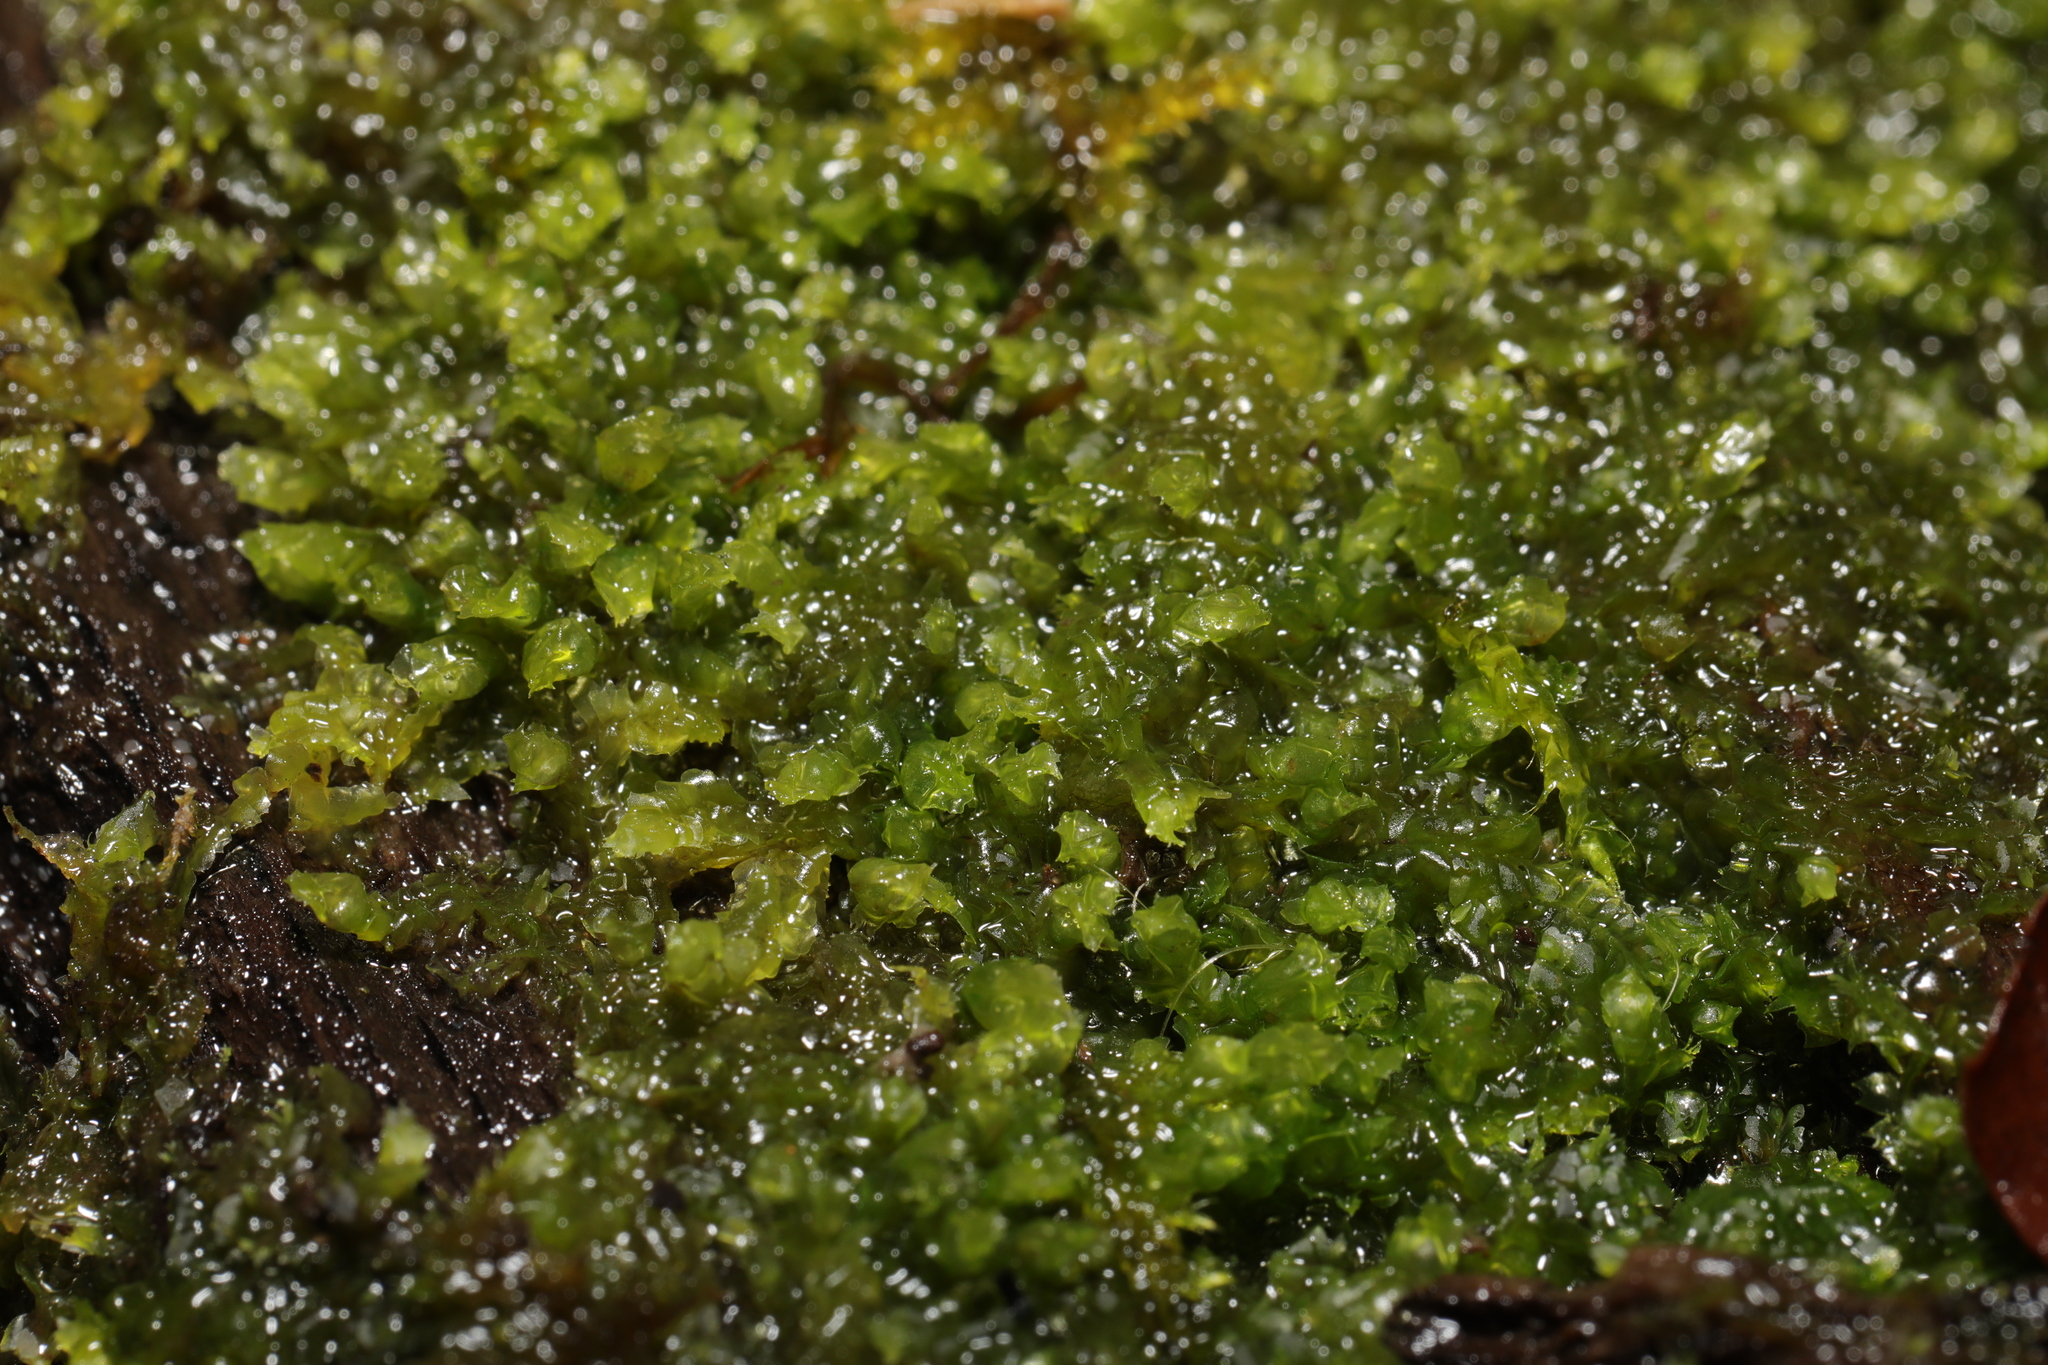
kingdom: Plantae
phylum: Marchantiophyta
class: Jungermanniopsida
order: Jungermanniales
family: Lophocoleaceae
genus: Lophocolea
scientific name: Lophocolea heterophylla
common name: Variable-leaved crestwort
